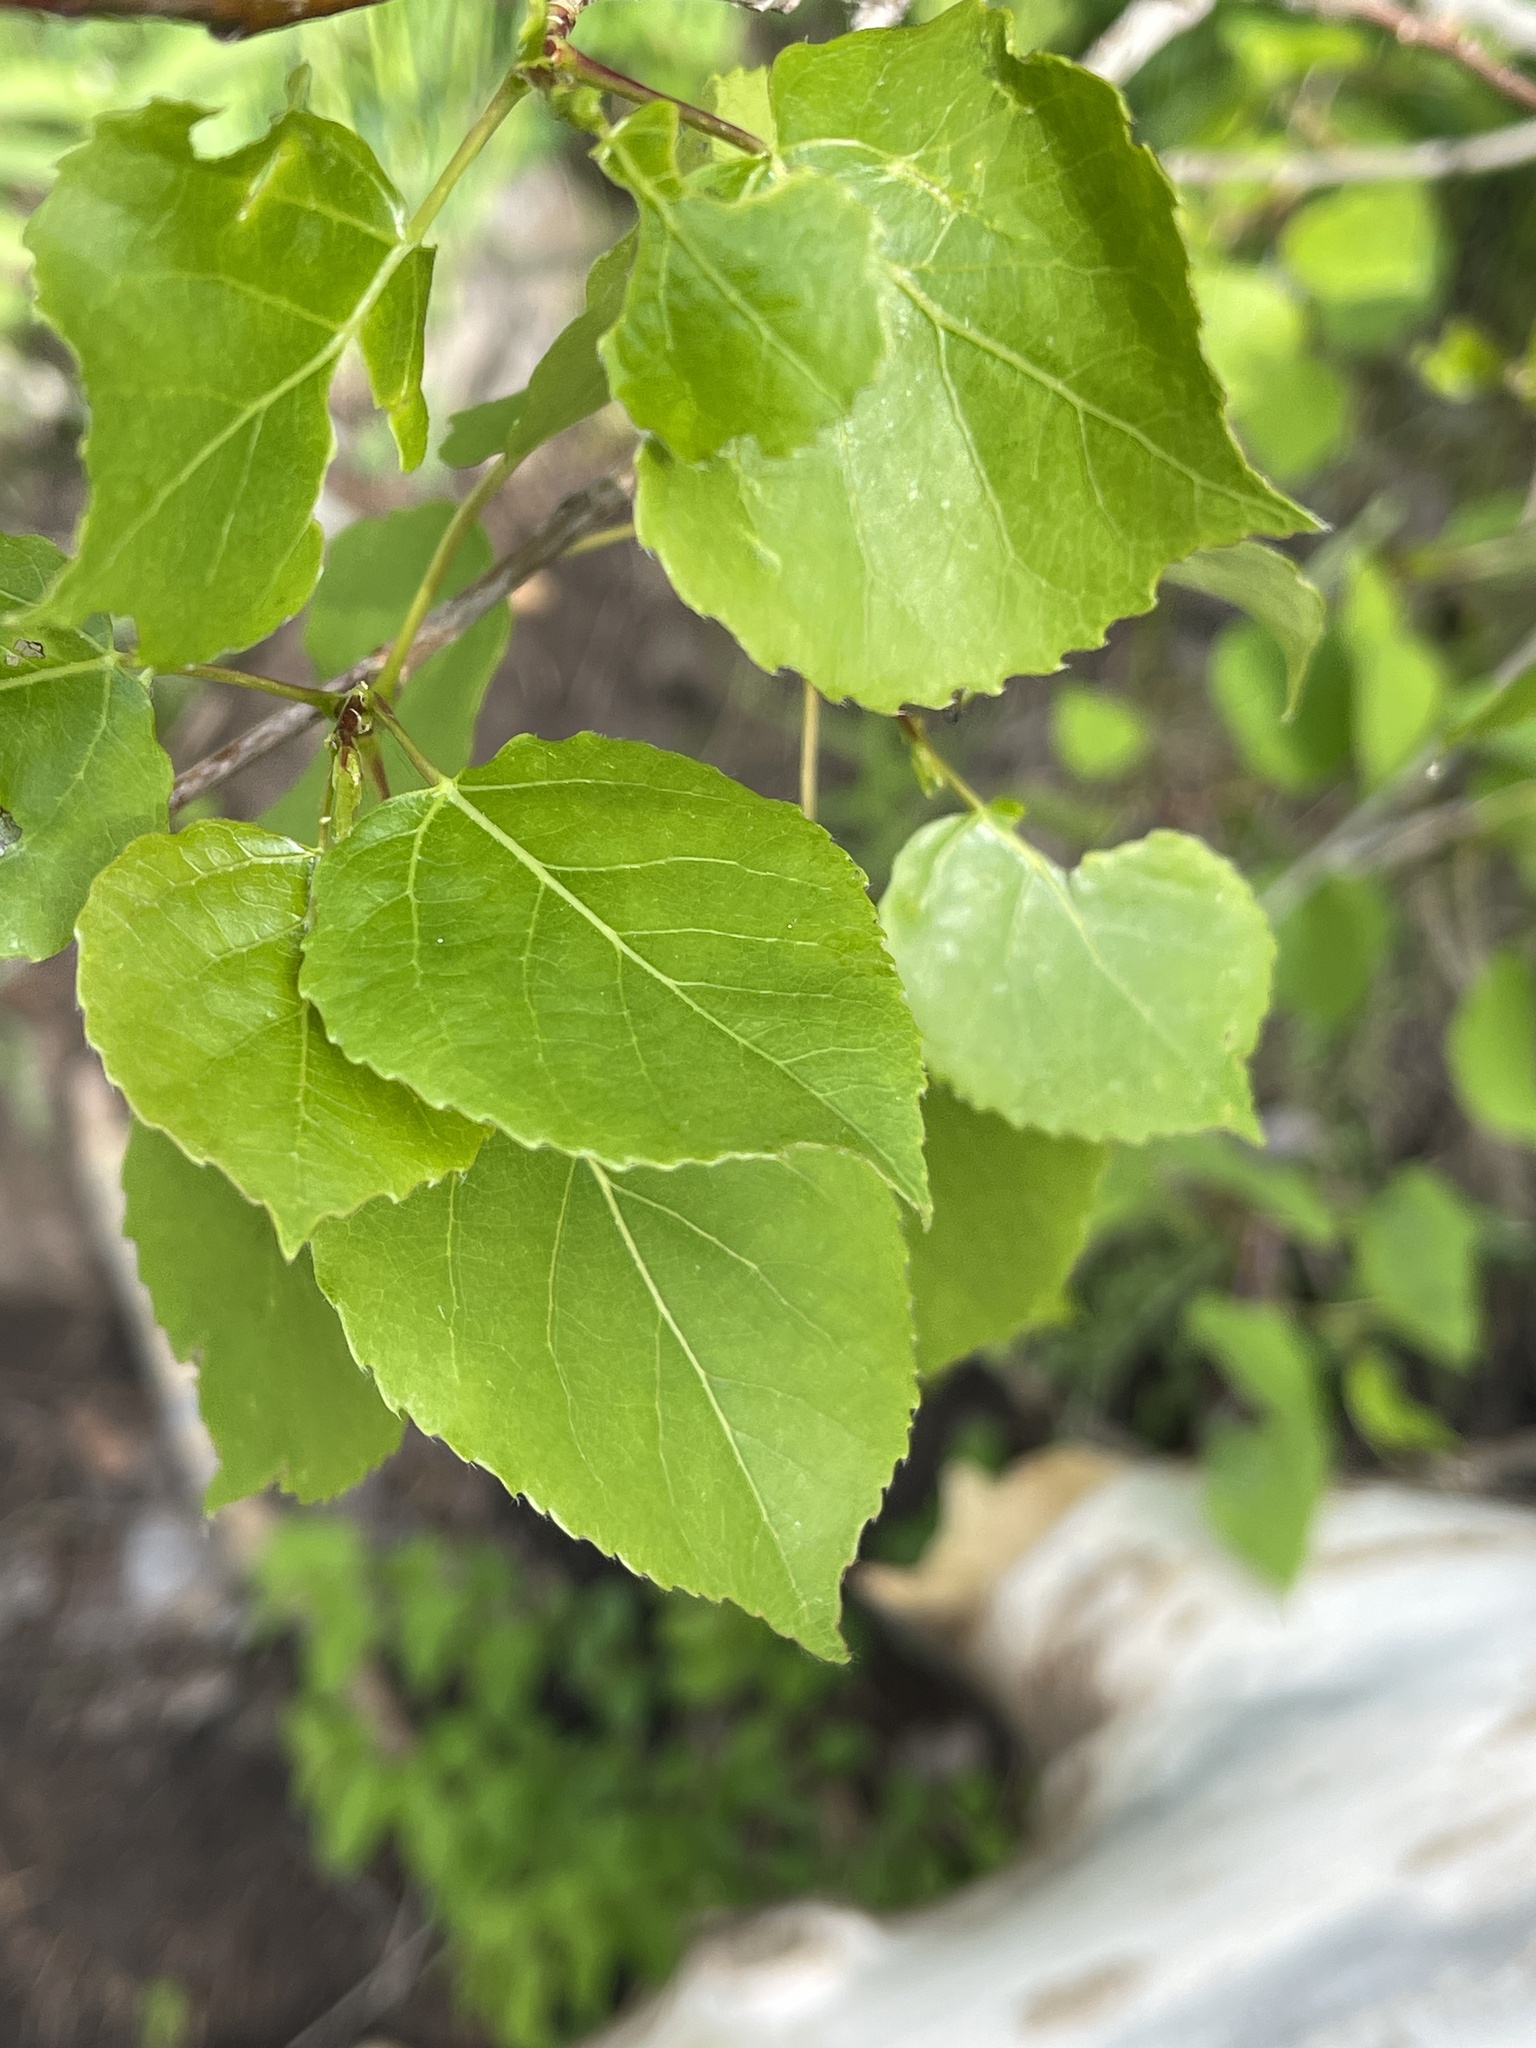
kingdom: Plantae
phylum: Tracheophyta
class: Magnoliopsida
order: Malpighiales
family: Salicaceae
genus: Populus
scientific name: Populus tremuloides
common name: Quaking aspen
